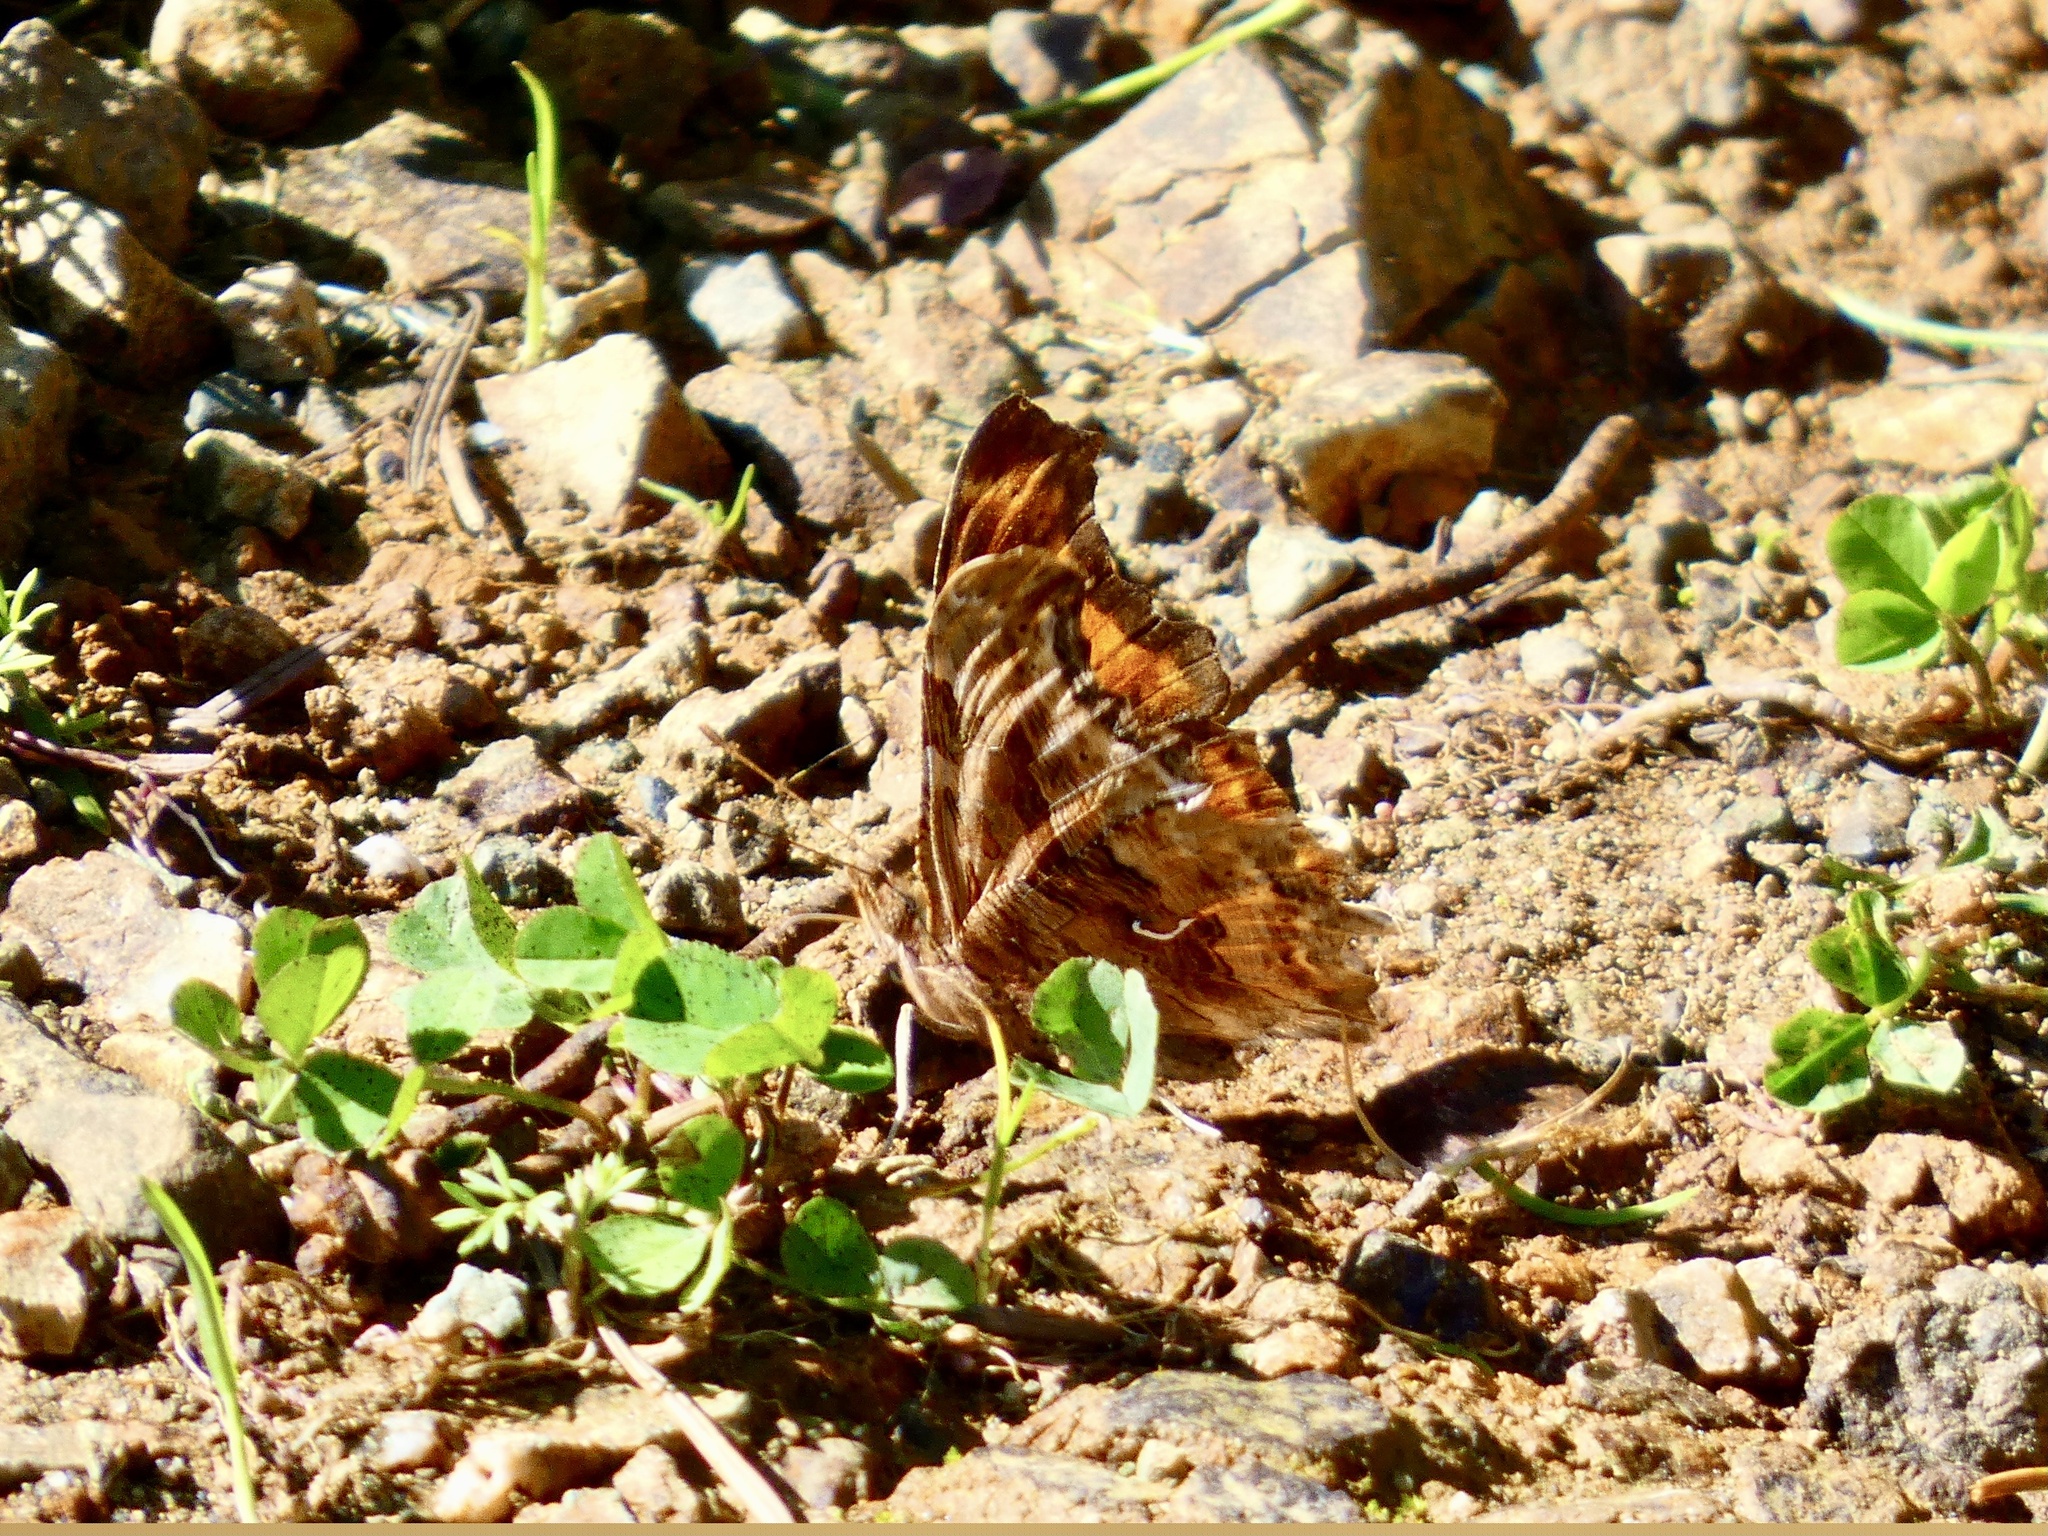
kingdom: Animalia
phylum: Arthropoda
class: Insecta
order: Lepidoptera
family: Nymphalidae
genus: Polygonia
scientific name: Polygonia satyrus
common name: Satyr angle wing
